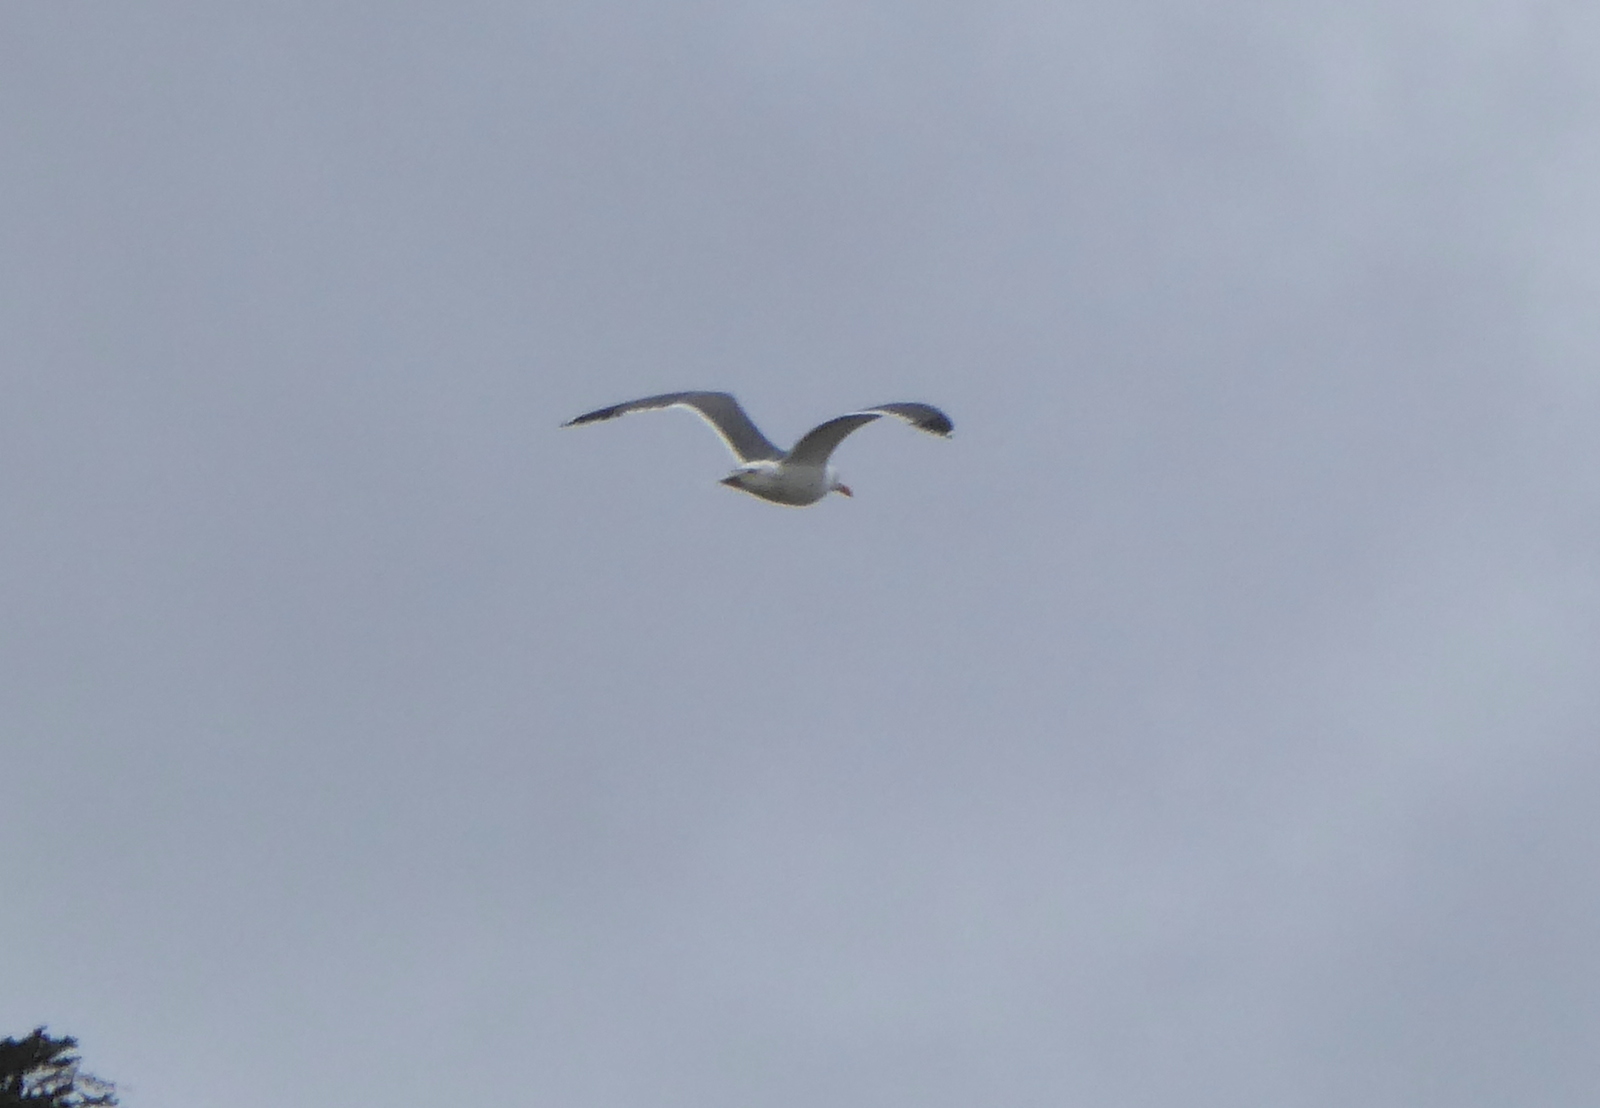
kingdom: Animalia
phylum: Chordata
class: Aves
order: Charadriiformes
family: Laridae
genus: Larus
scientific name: Larus occidentalis
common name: Western gull
